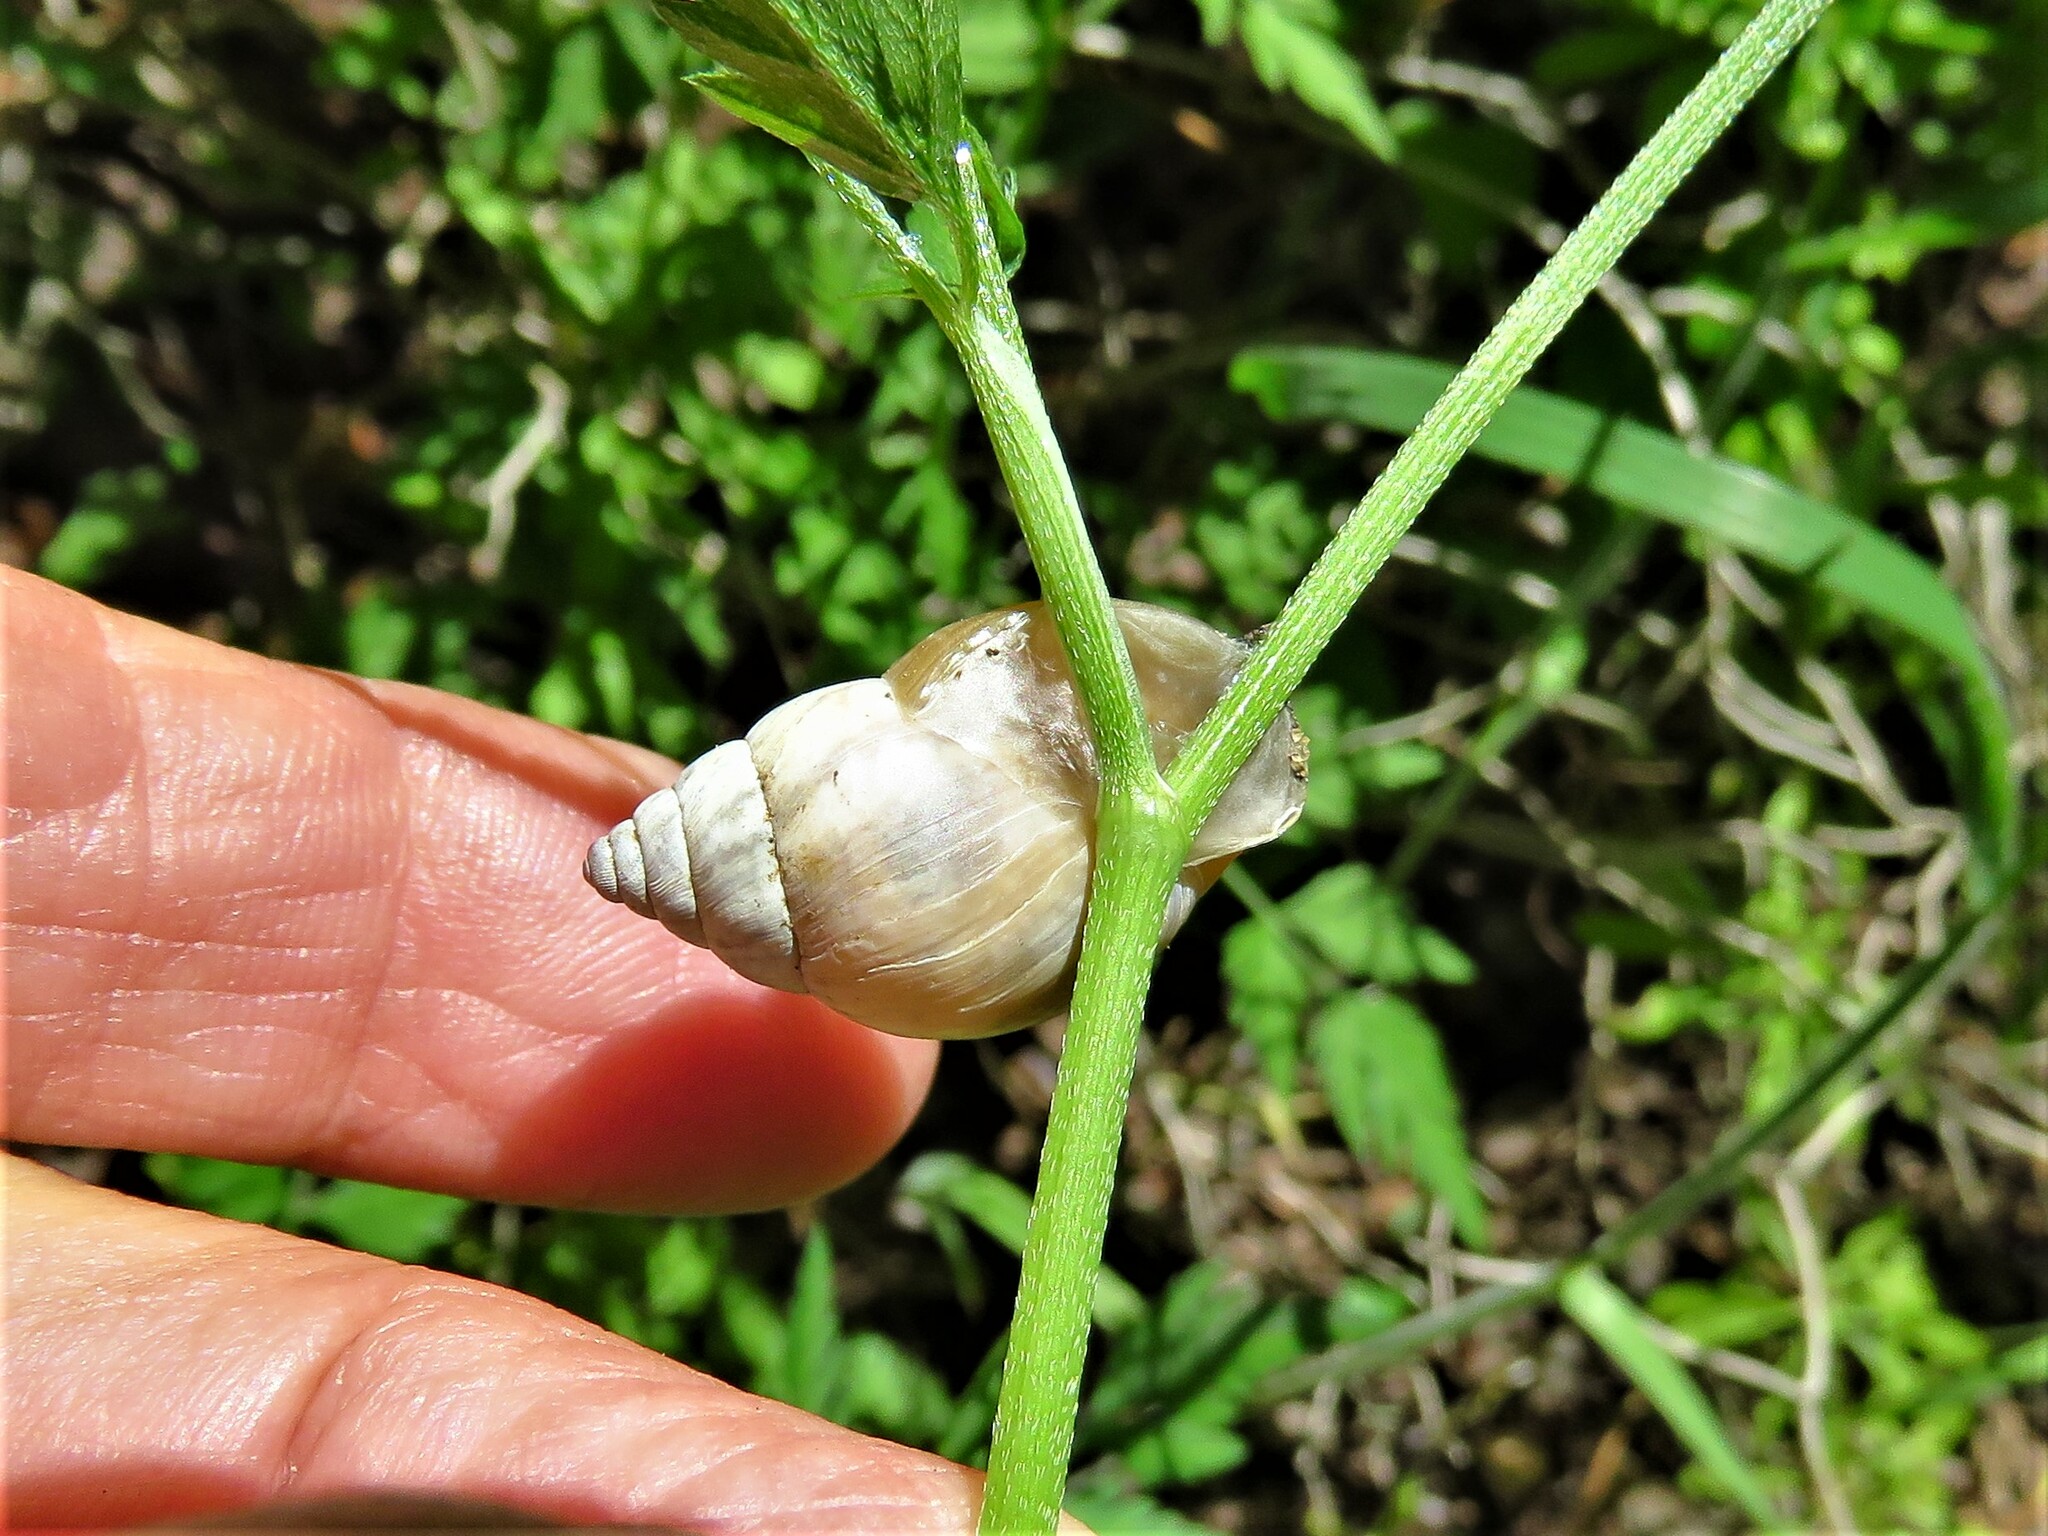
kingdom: Animalia
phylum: Mollusca
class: Gastropoda
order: Stylommatophora
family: Bulimulidae
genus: Rabdotus
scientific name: Rabdotus mooreanus
